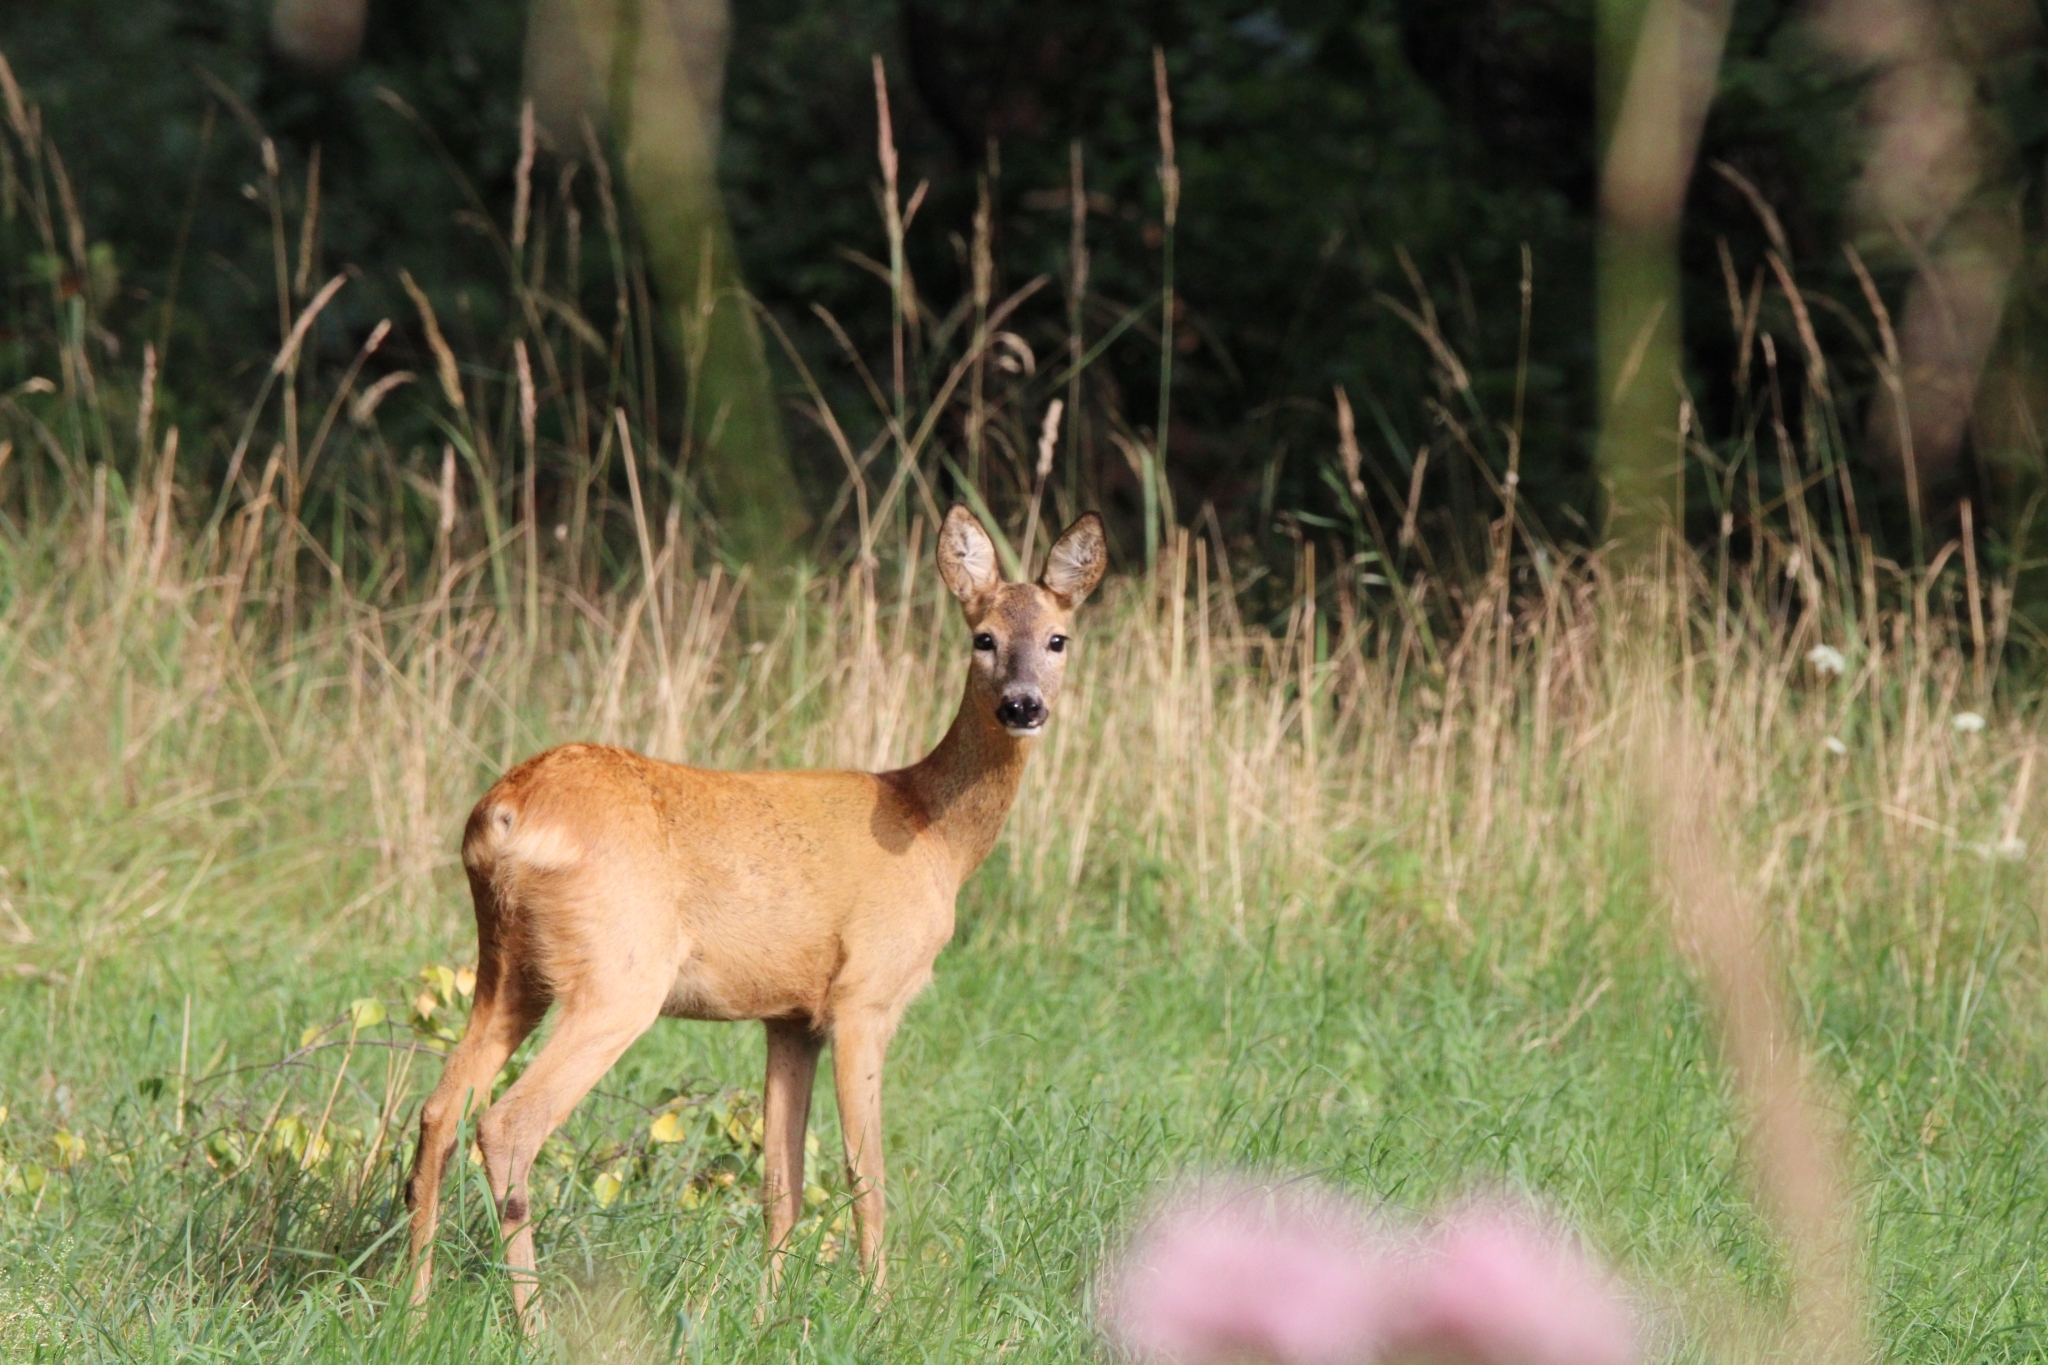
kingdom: Animalia
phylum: Chordata
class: Mammalia
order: Artiodactyla
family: Cervidae
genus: Capreolus
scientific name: Capreolus capreolus
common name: Western roe deer
